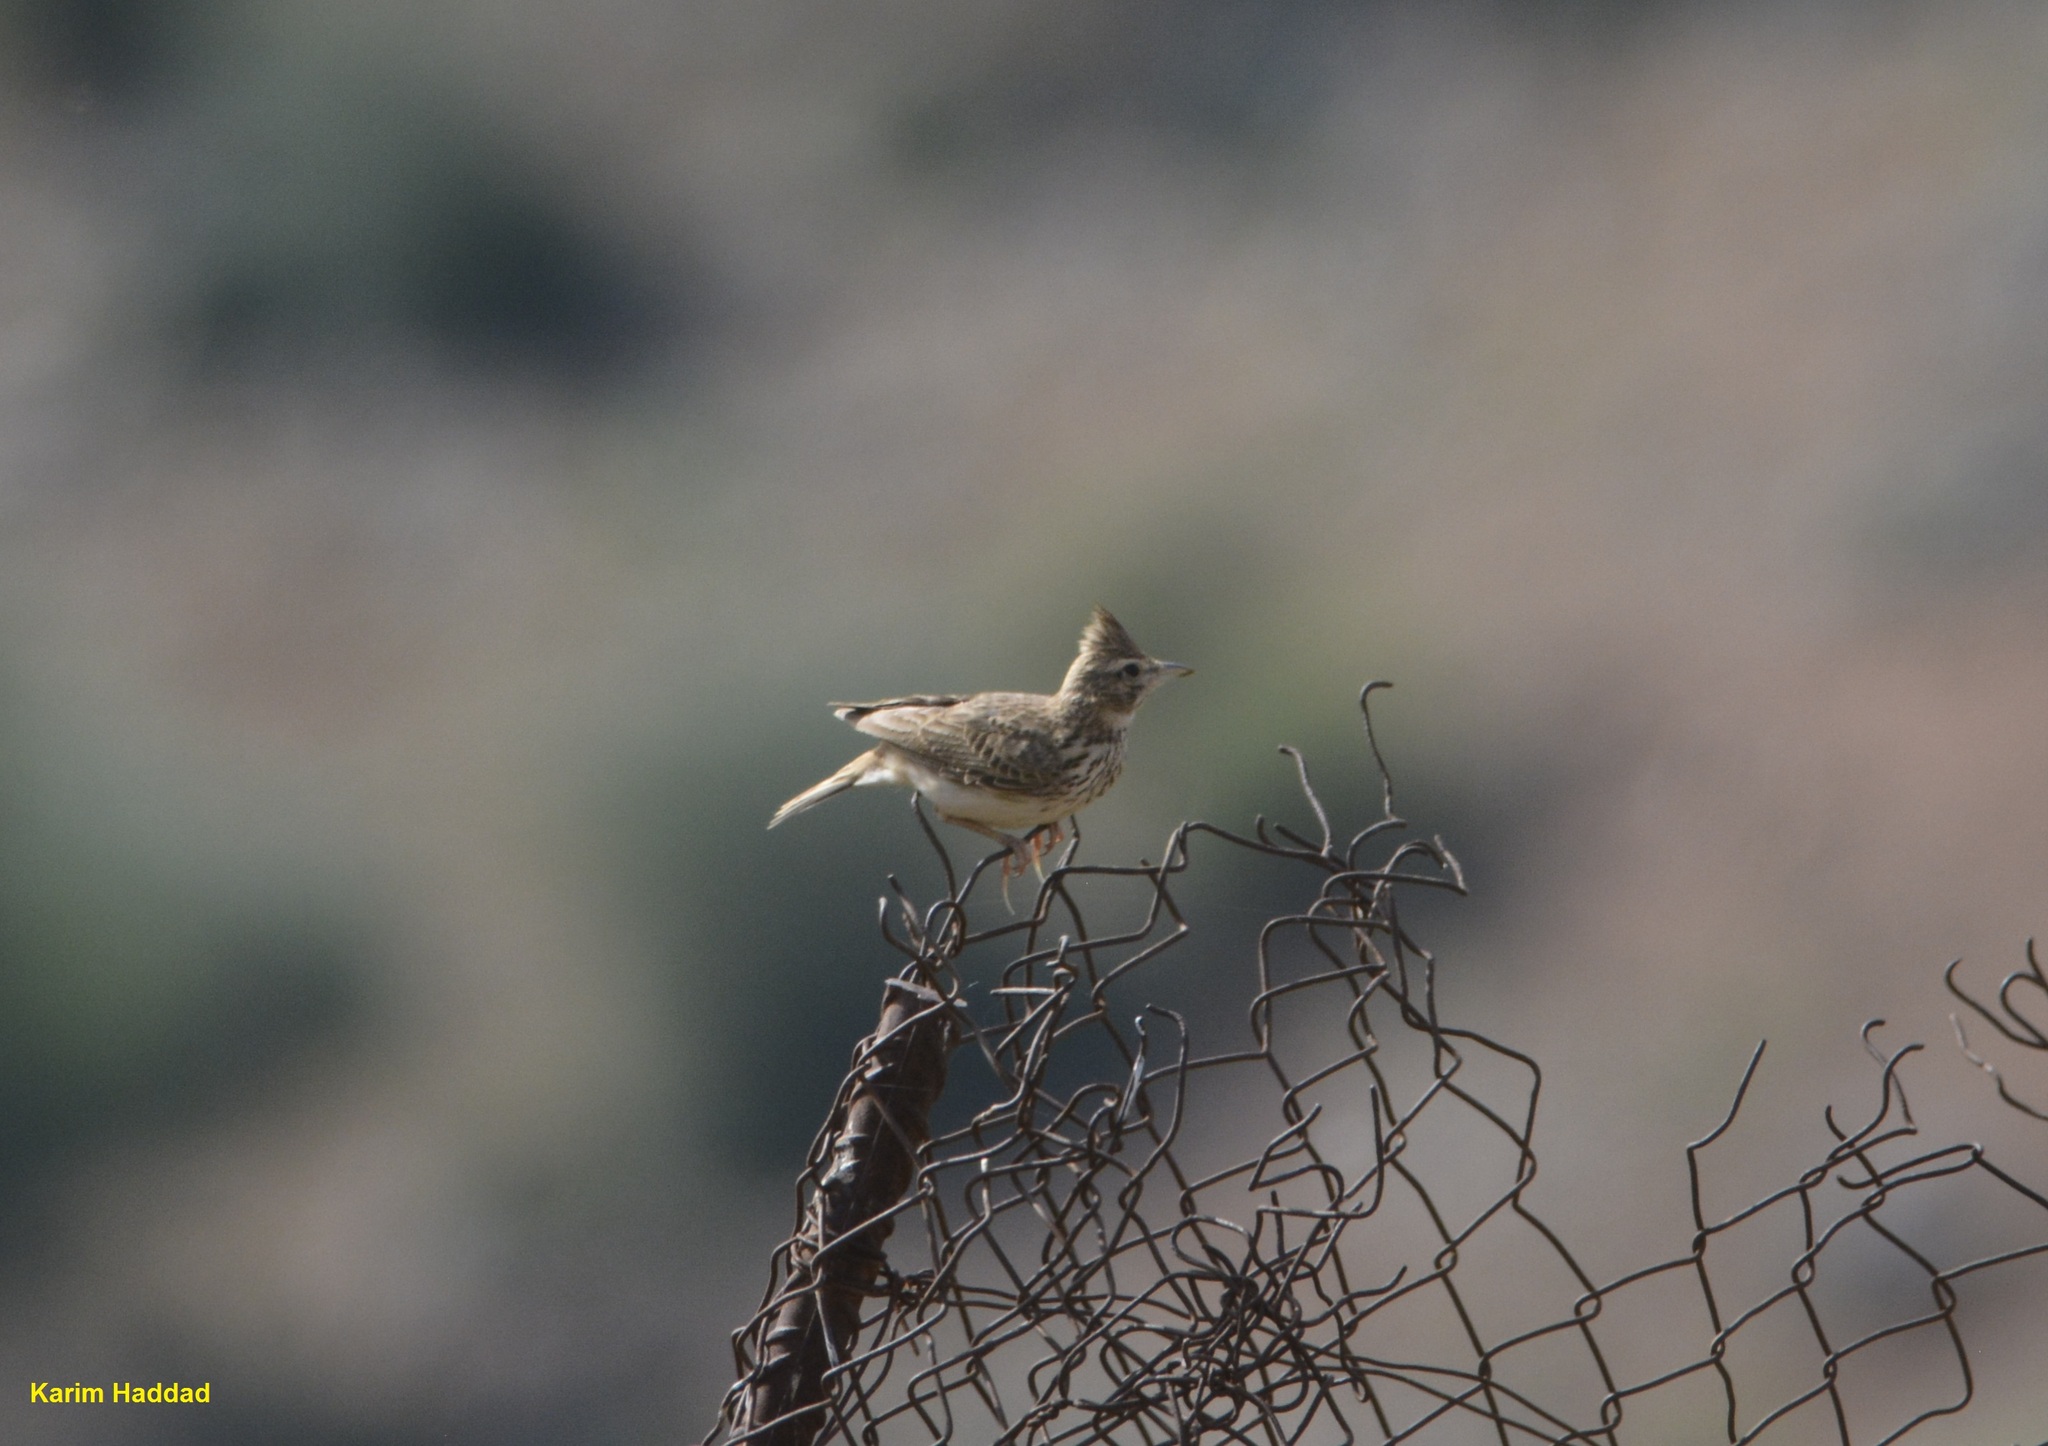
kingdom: Animalia
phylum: Chordata
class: Aves
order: Passeriformes
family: Alaudidae
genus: Galerida
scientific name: Galerida theklae
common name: Thekla lark
